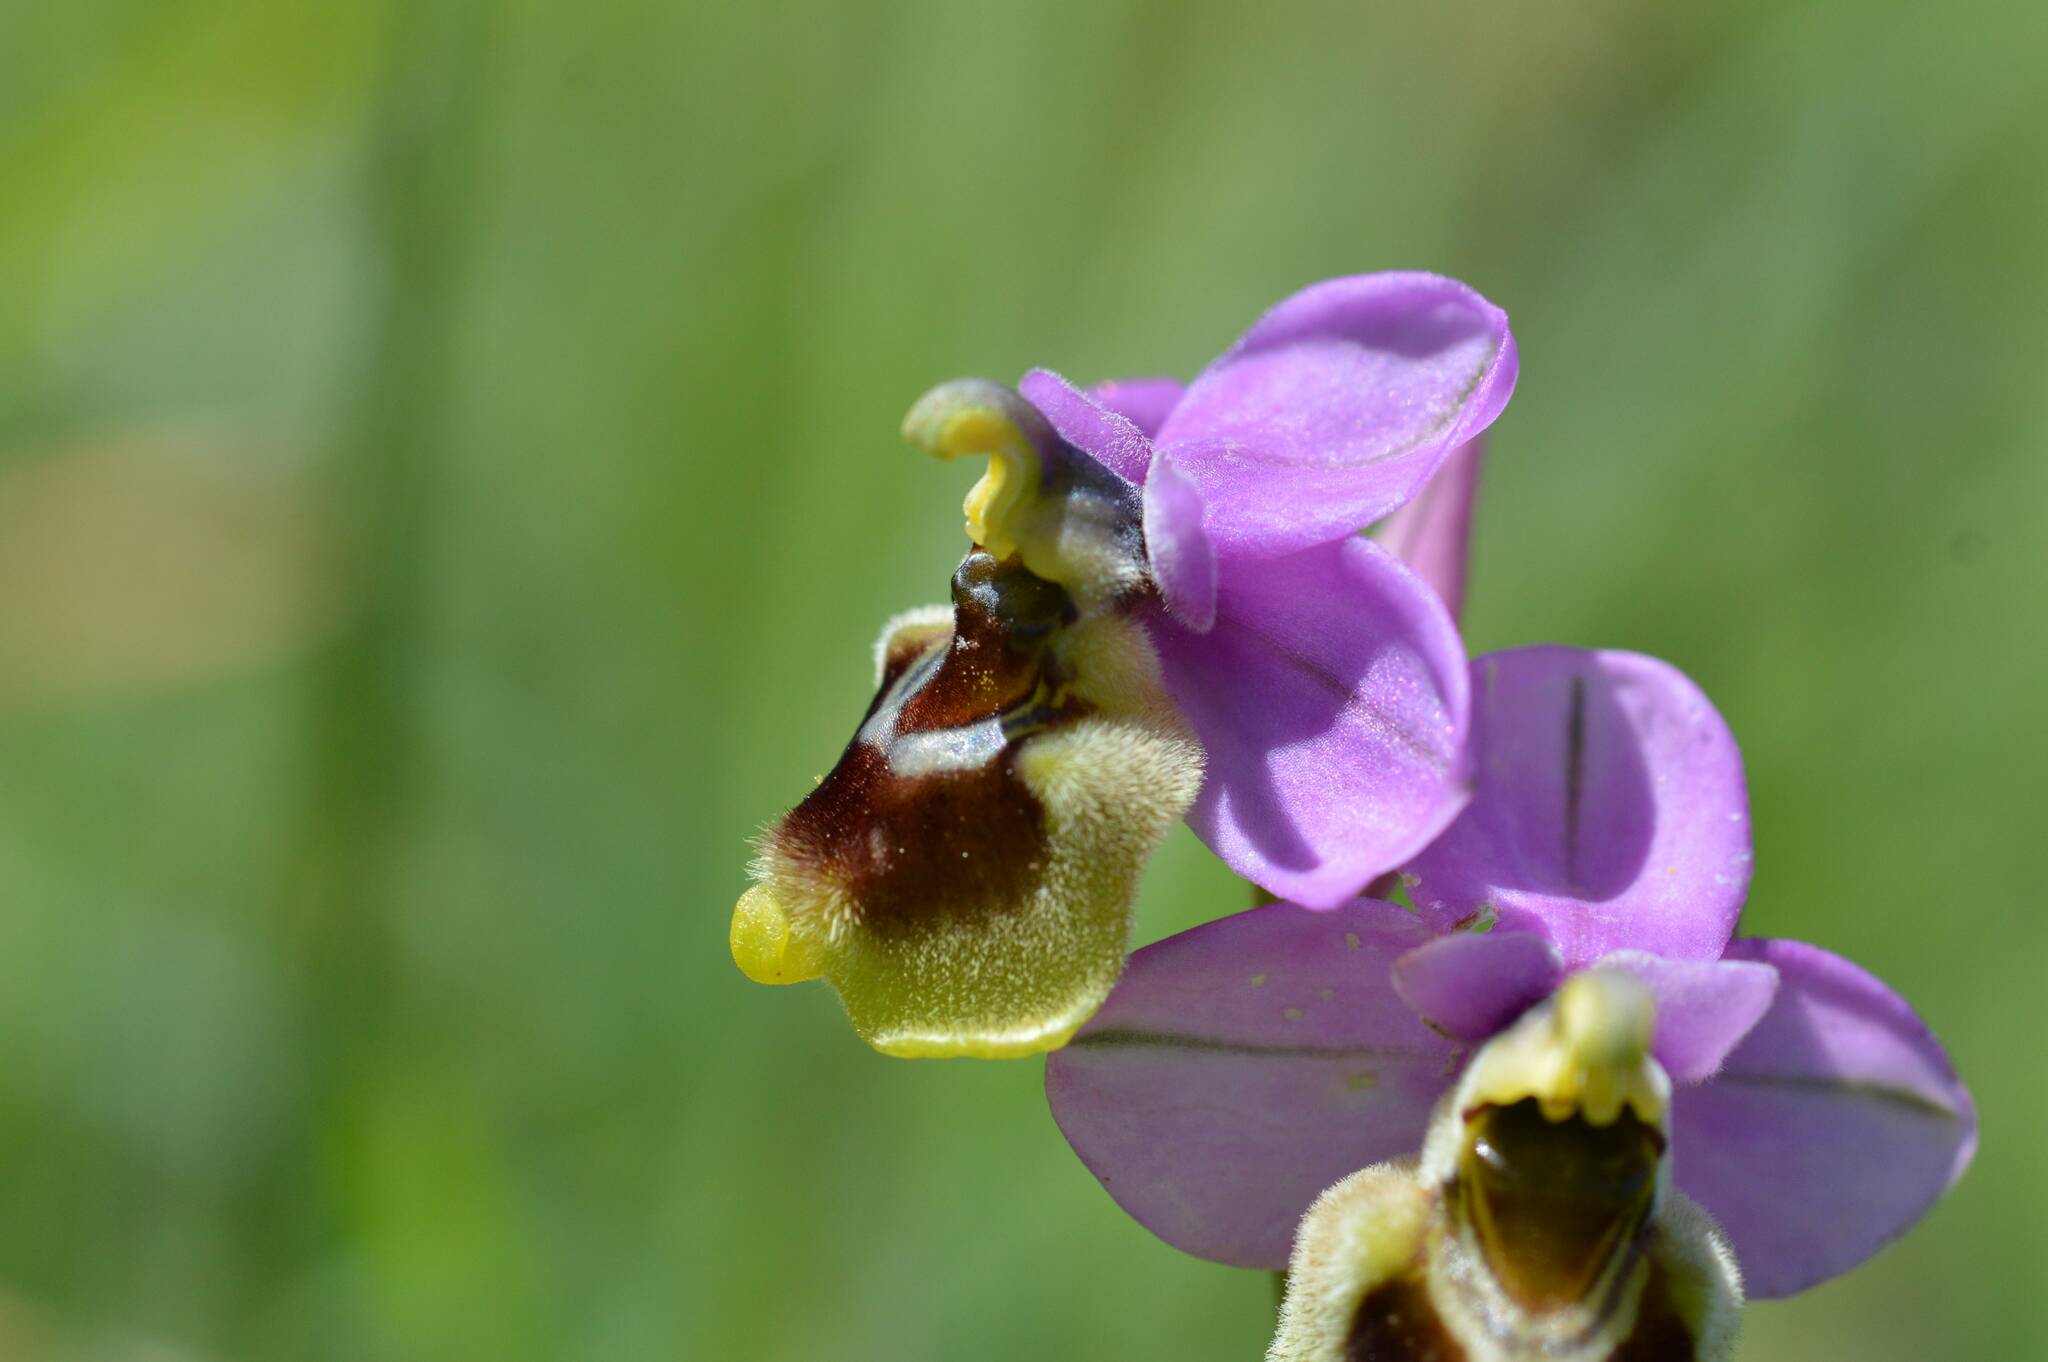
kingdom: Plantae
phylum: Tracheophyta
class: Liliopsida
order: Asparagales
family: Orchidaceae
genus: Ophrys
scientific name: Ophrys tenthredinifera
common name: Sawfly orchid
